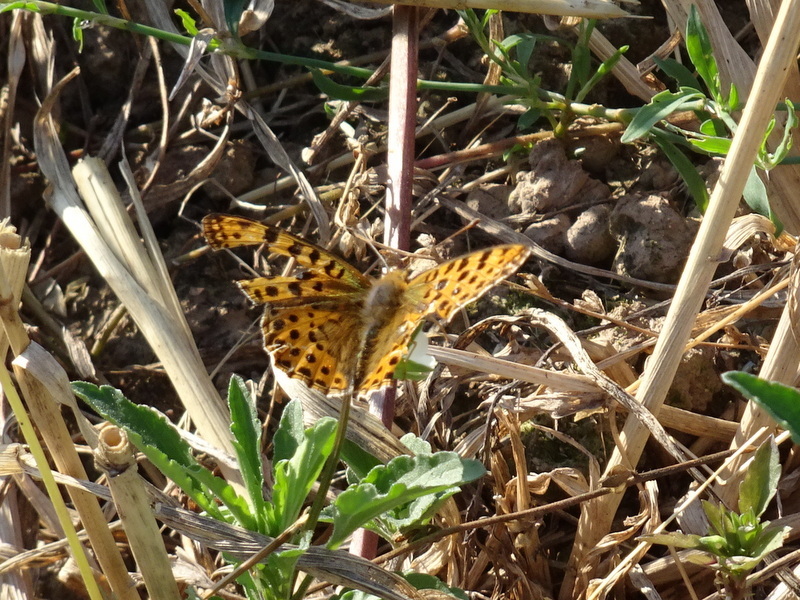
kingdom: Animalia
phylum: Arthropoda
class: Insecta
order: Lepidoptera
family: Nymphalidae
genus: Issoria
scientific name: Issoria lathonia
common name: Queen of spain fritillary
